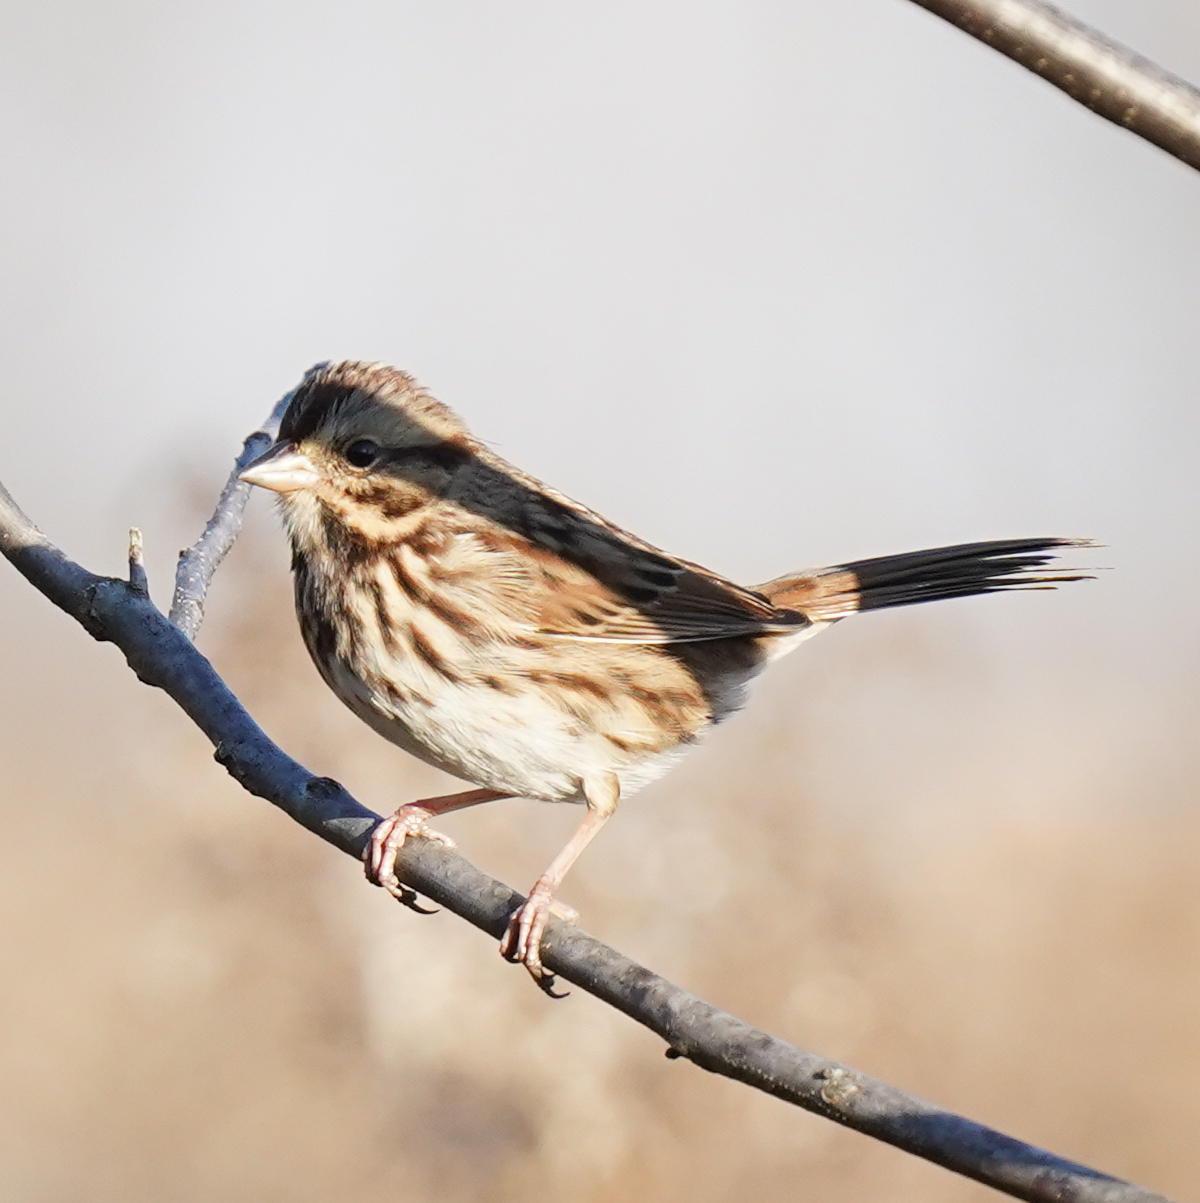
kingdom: Animalia
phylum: Chordata
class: Aves
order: Passeriformes
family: Passerellidae
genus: Melospiza
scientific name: Melospiza melodia
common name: Song sparrow
